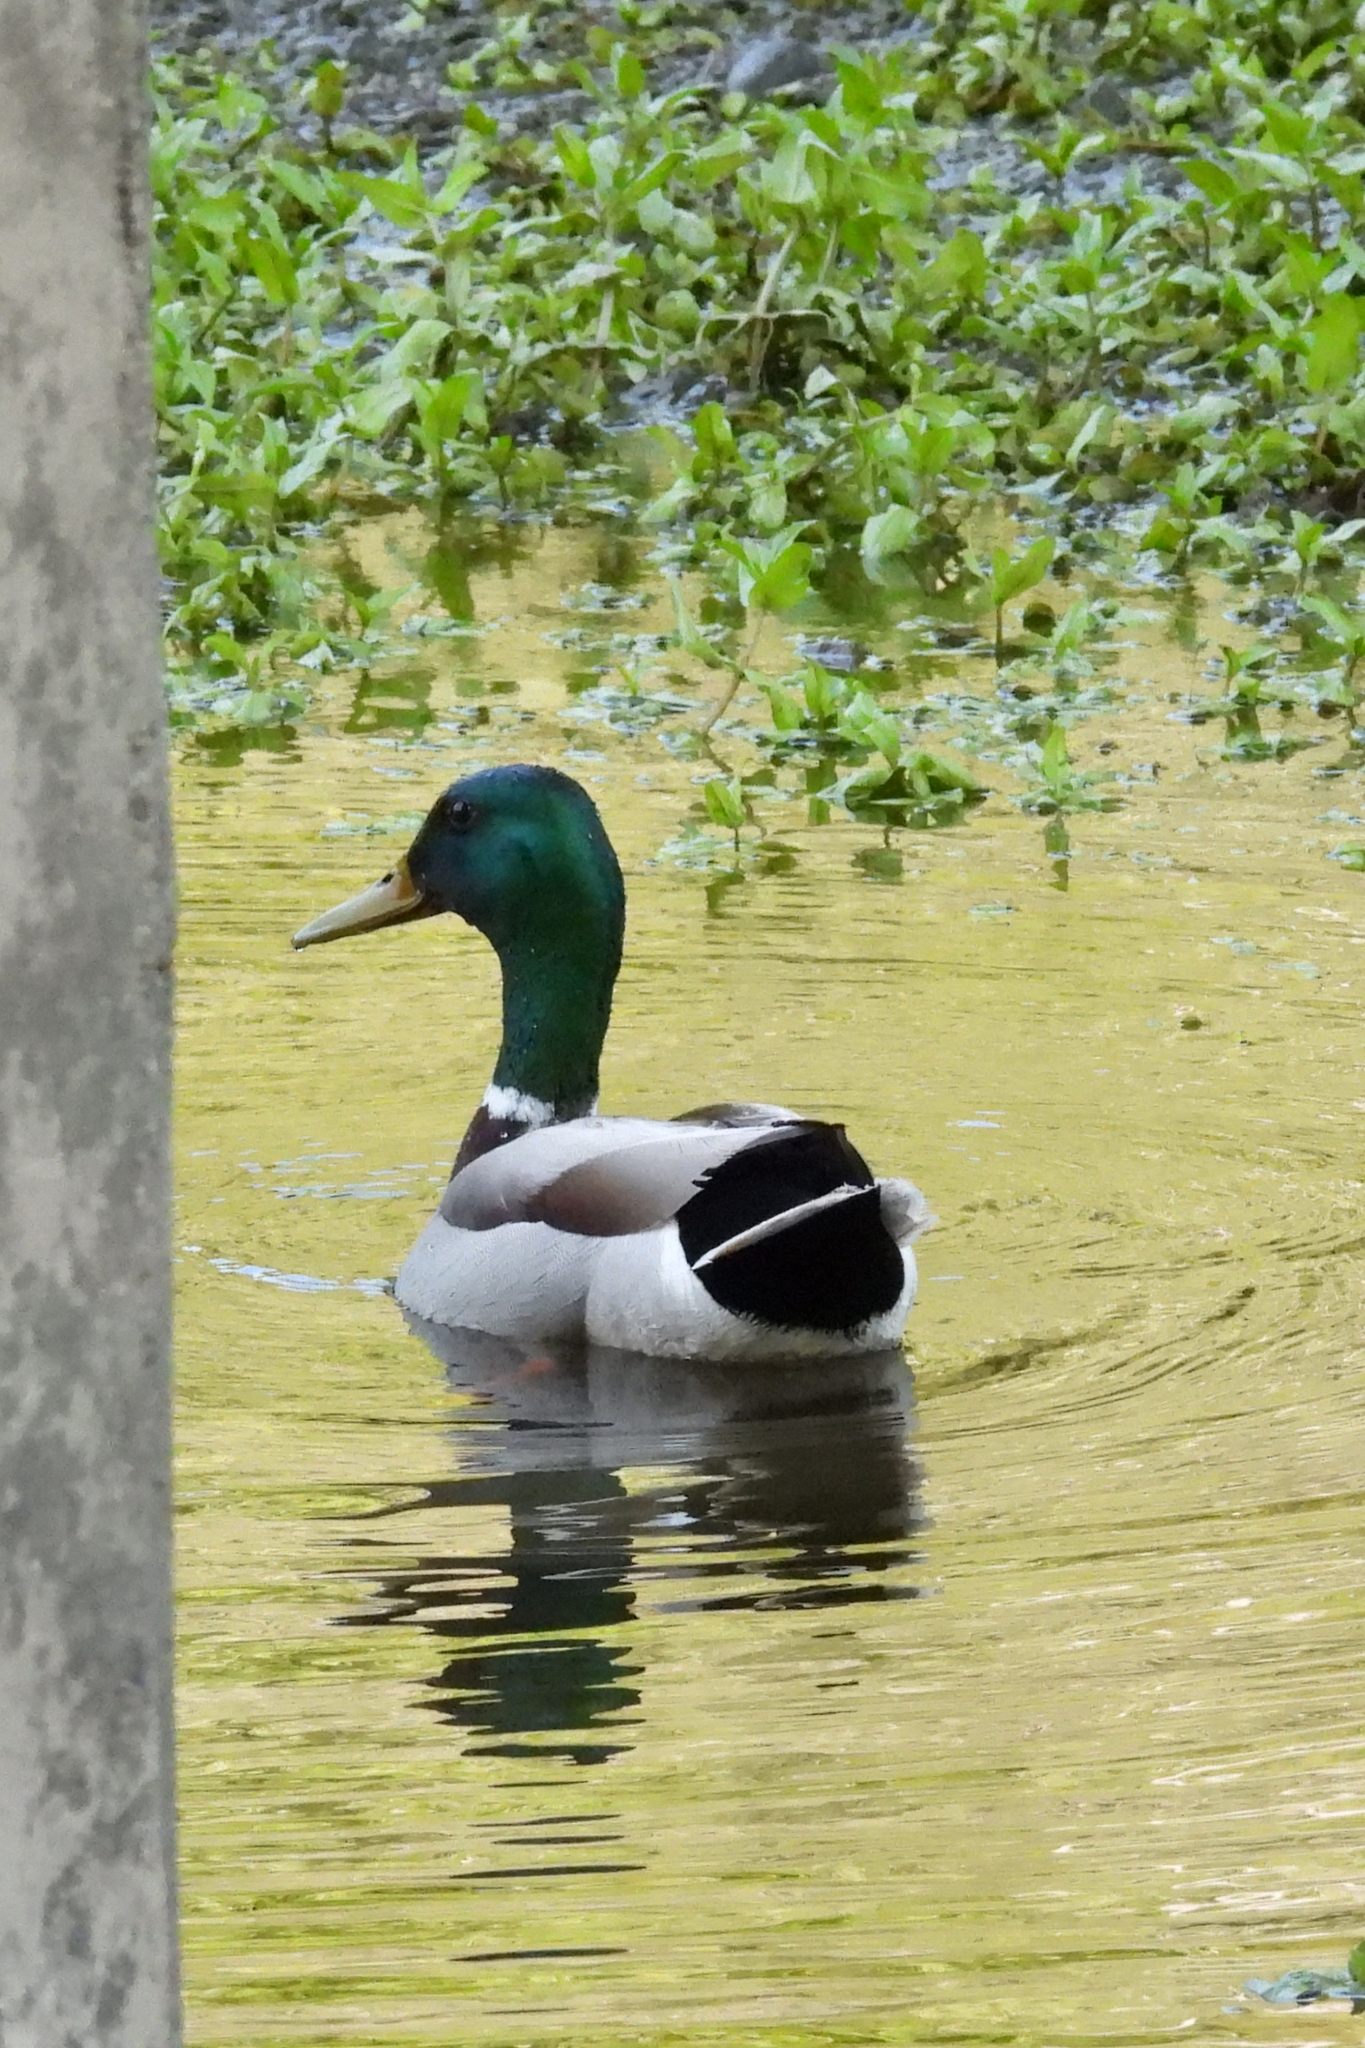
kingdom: Animalia
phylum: Chordata
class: Aves
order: Anseriformes
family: Anatidae
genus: Anas
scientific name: Anas platyrhynchos
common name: Mallard
